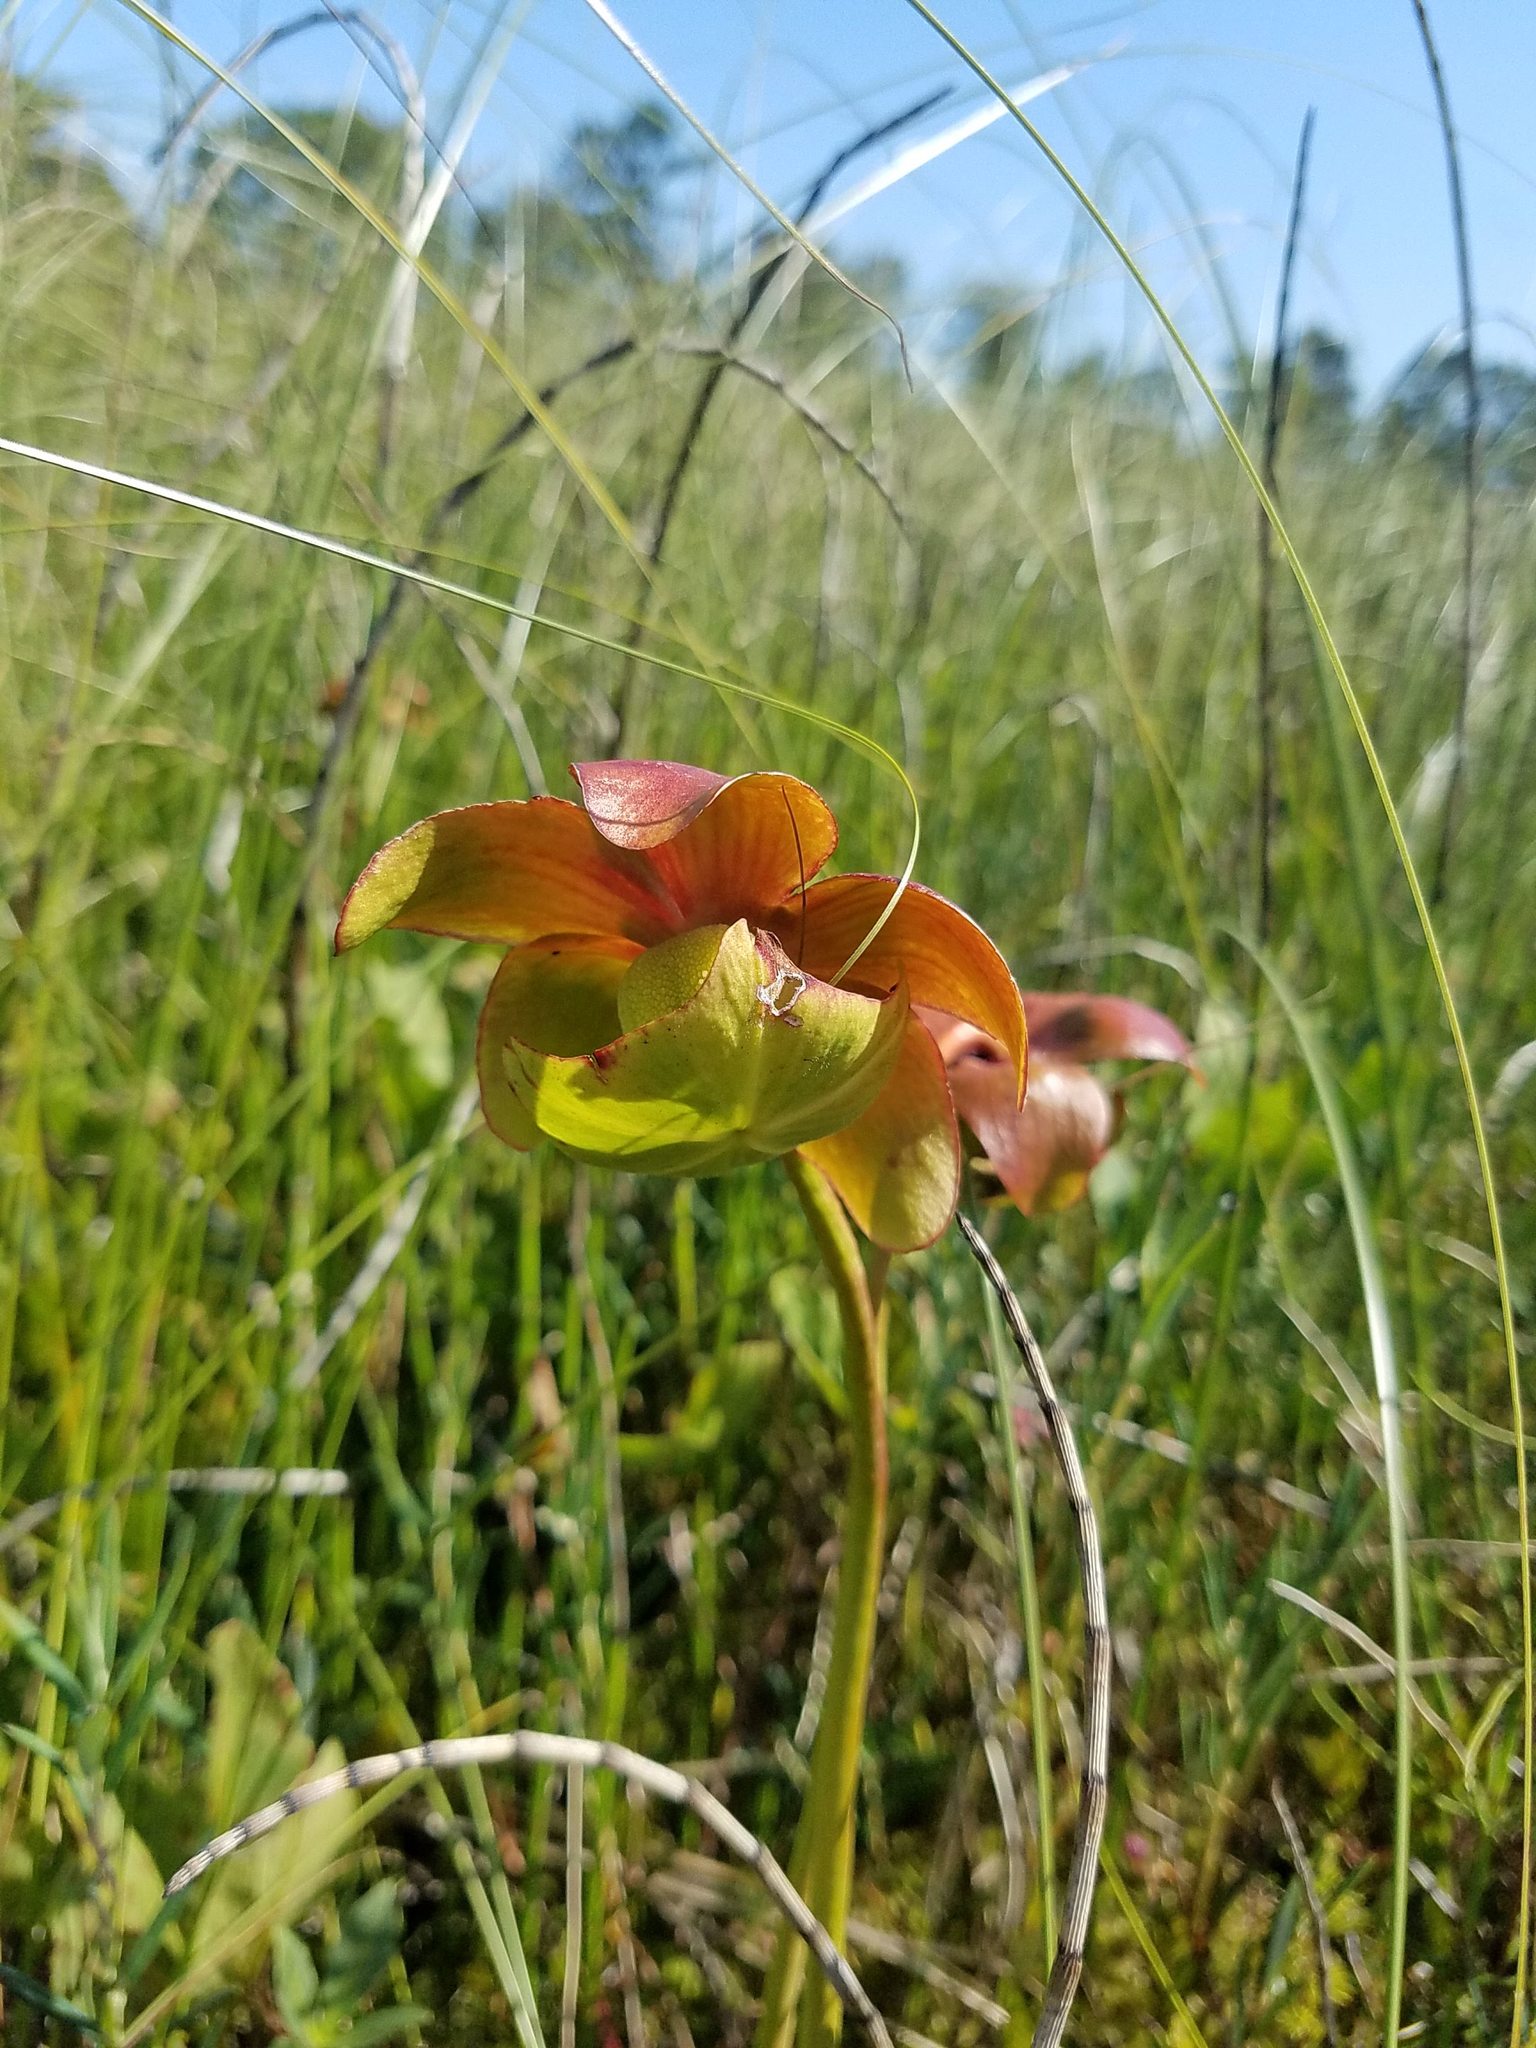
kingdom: Plantae
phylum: Tracheophyta
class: Magnoliopsida
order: Ericales
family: Sarraceniaceae
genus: Sarracenia
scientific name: Sarracenia purpurea
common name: Pitcherplant
